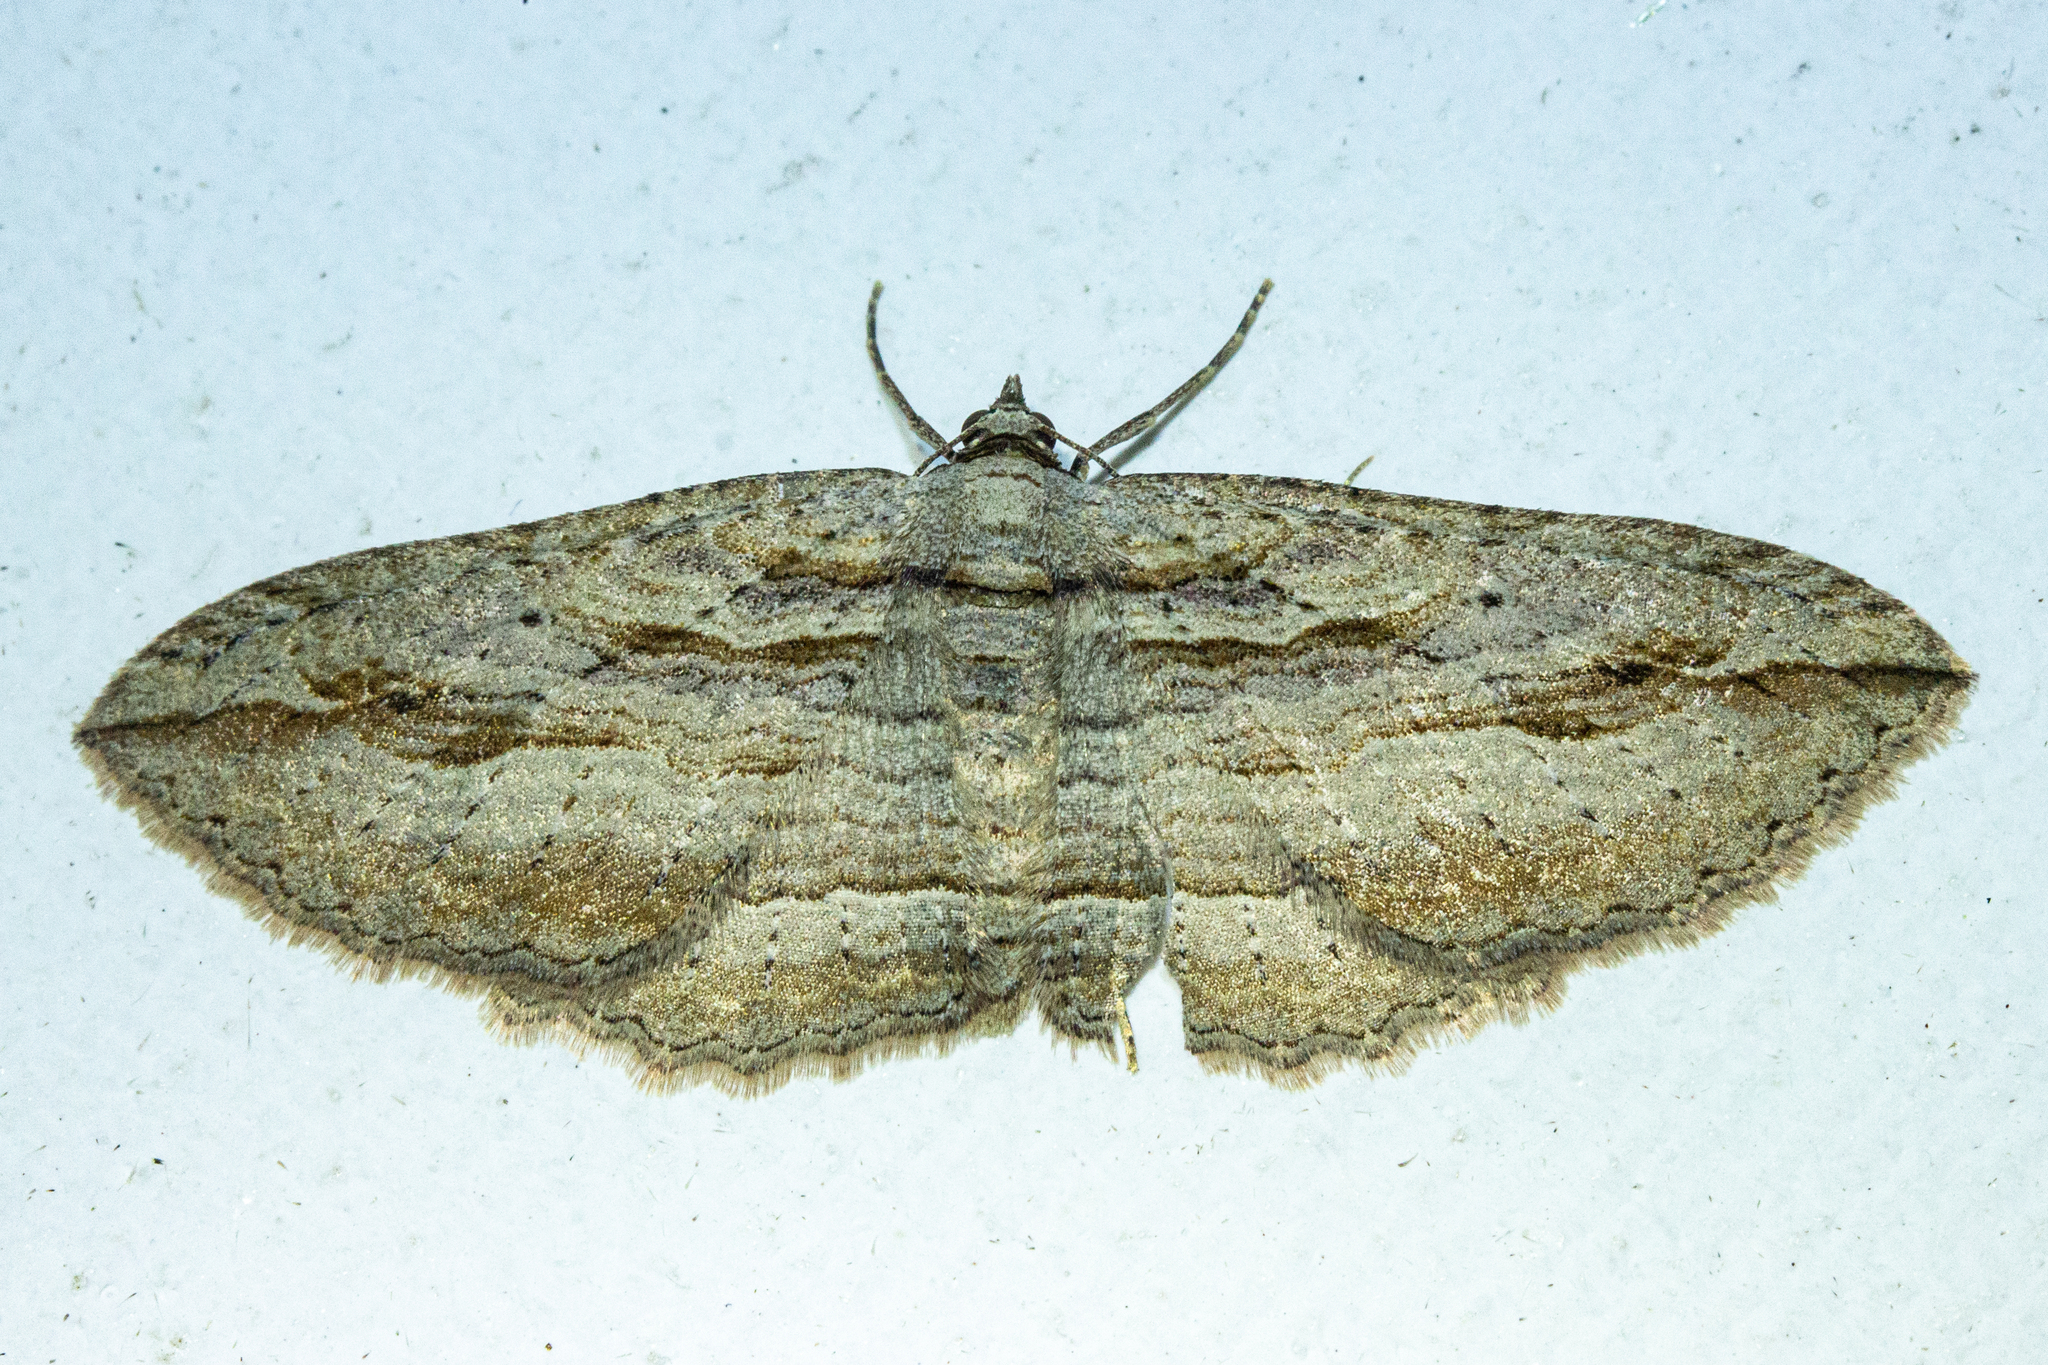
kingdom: Animalia
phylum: Arthropoda
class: Insecta
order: Lepidoptera
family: Geometridae
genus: Austrocidaria
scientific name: Austrocidaria gobiata
